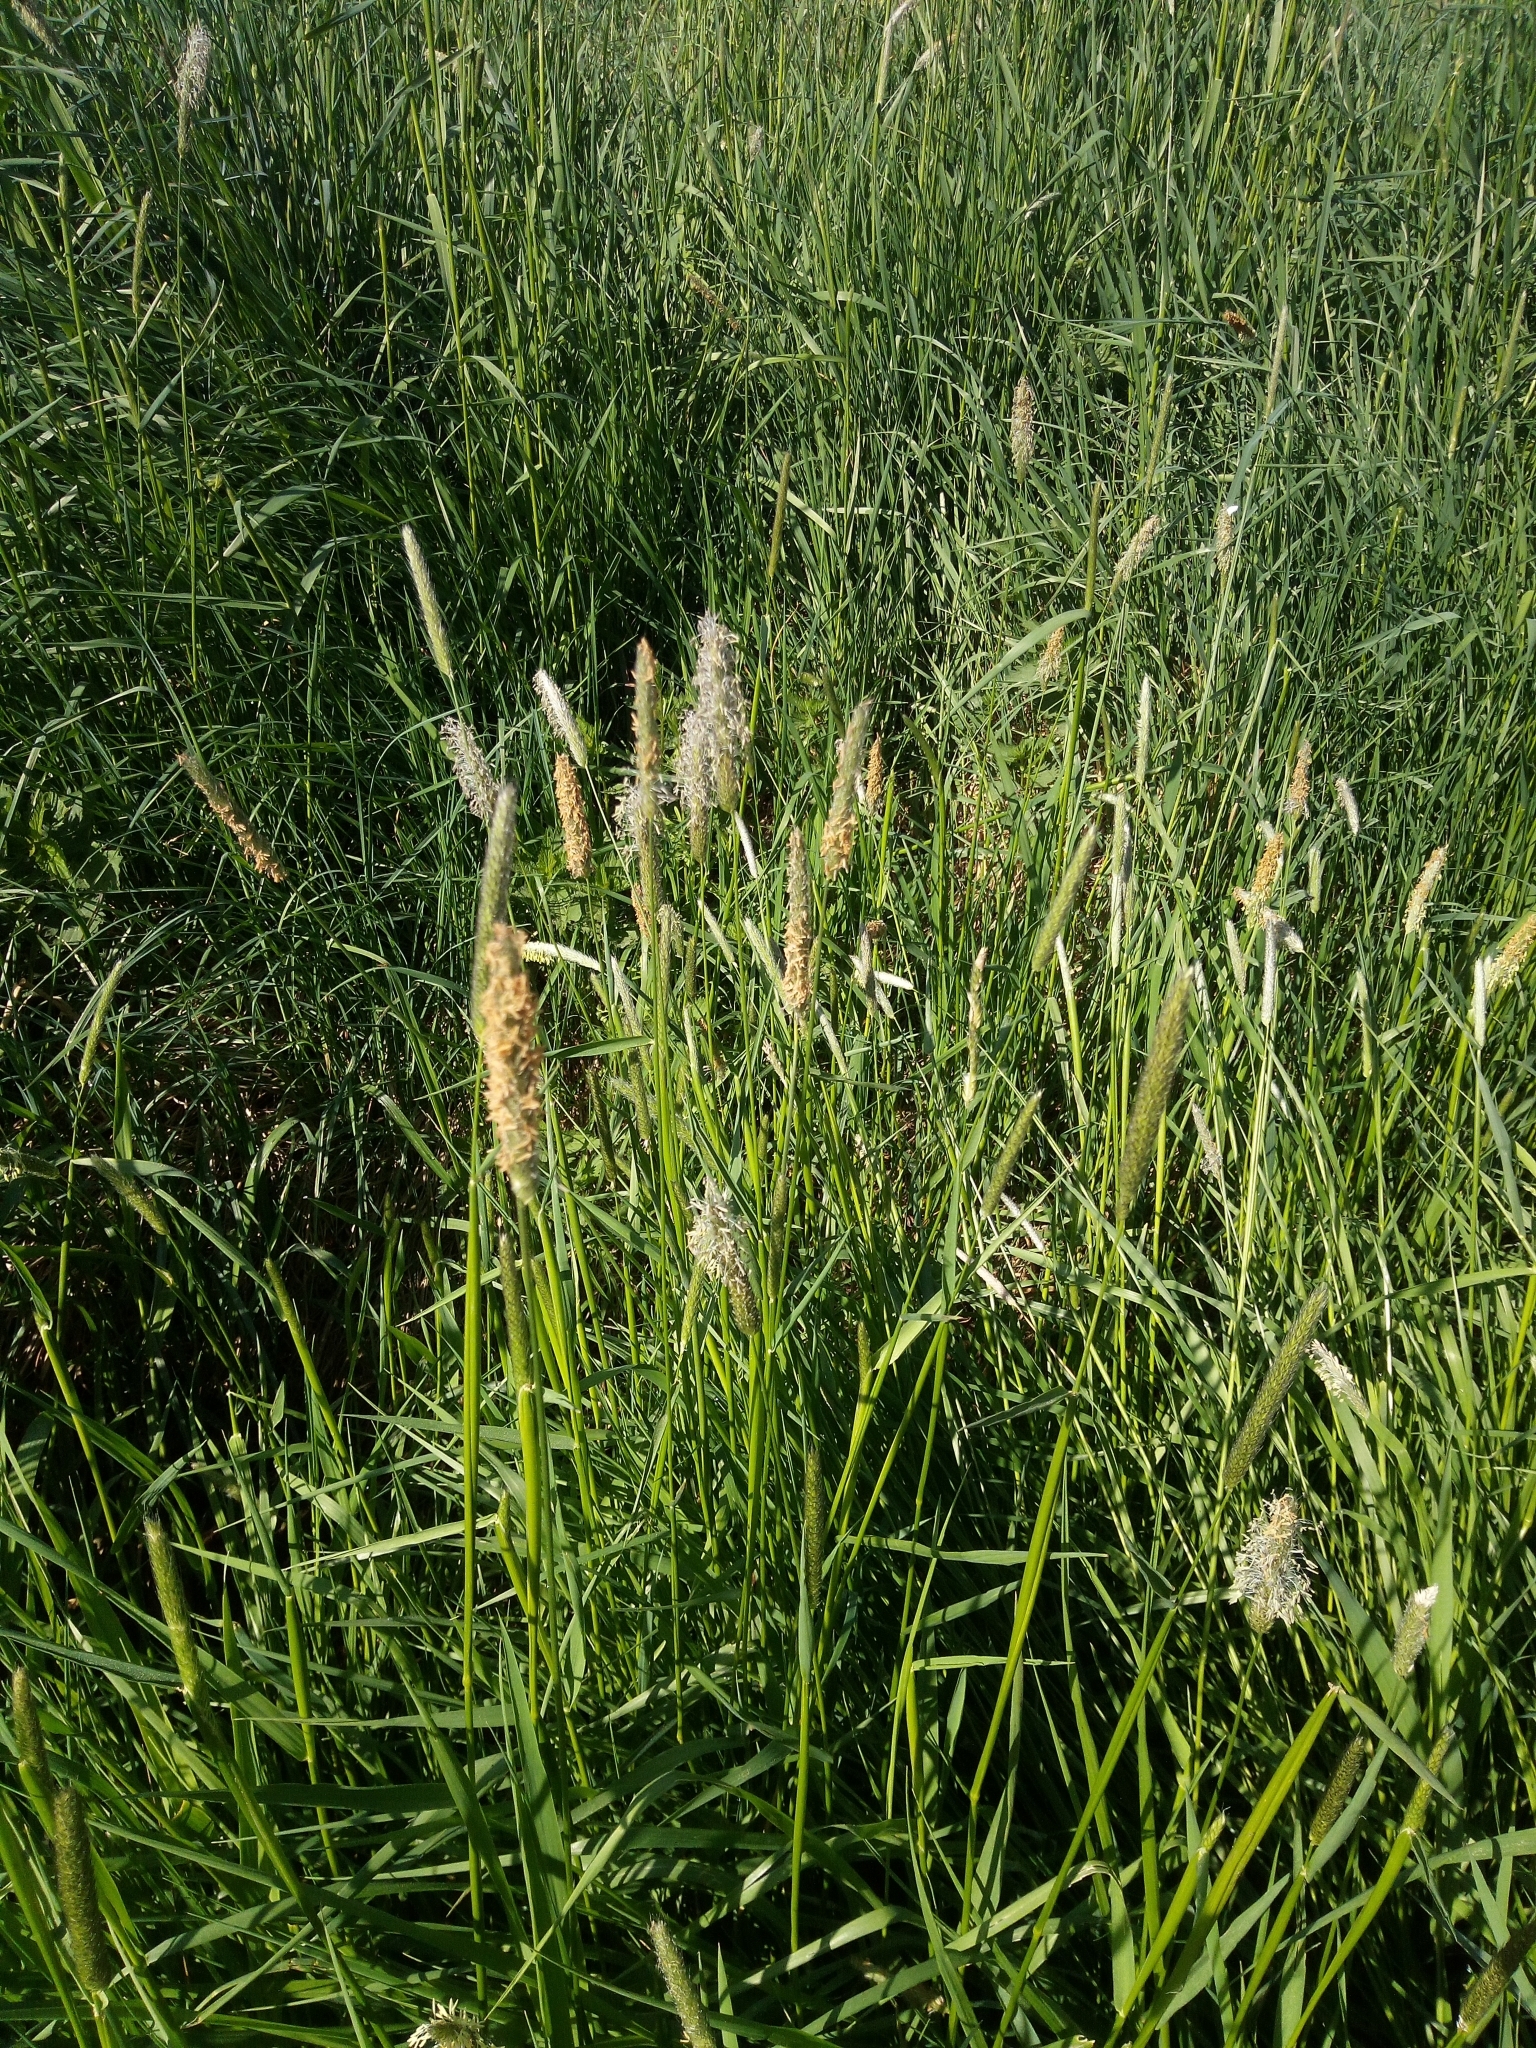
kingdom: Plantae
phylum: Tracheophyta
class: Liliopsida
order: Poales
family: Poaceae
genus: Alopecurus
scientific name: Alopecurus pratensis
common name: Meadow foxtail
